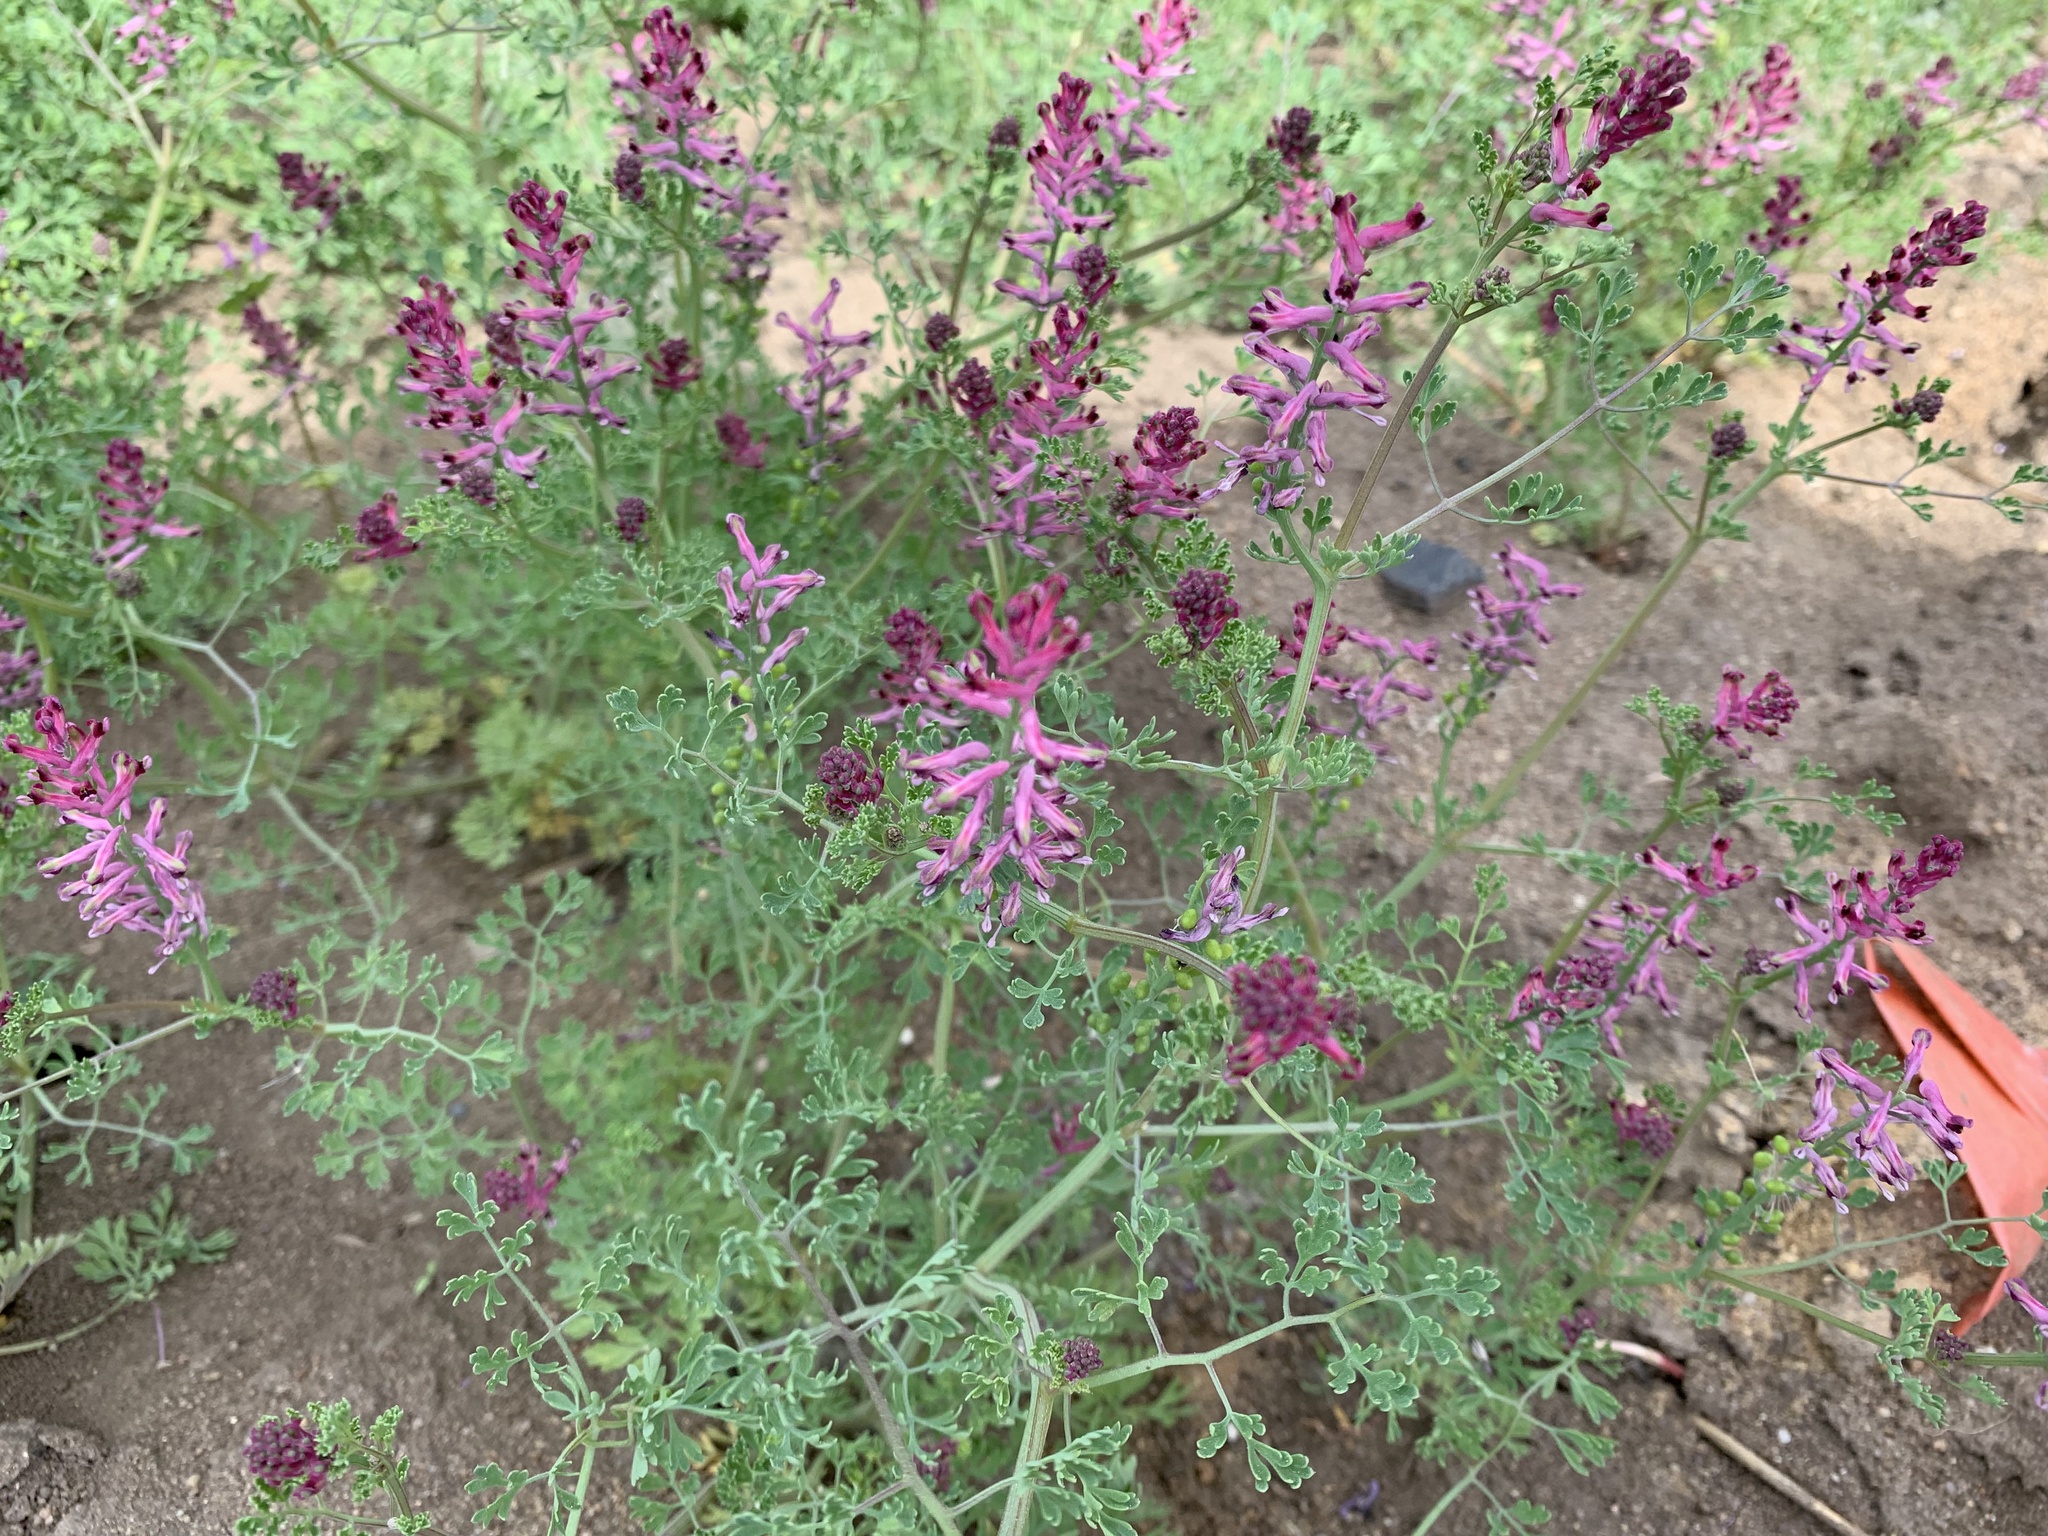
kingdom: Plantae
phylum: Tracheophyta
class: Magnoliopsida
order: Ranunculales
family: Papaveraceae
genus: Fumaria
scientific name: Fumaria officinalis
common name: Common fumitory
